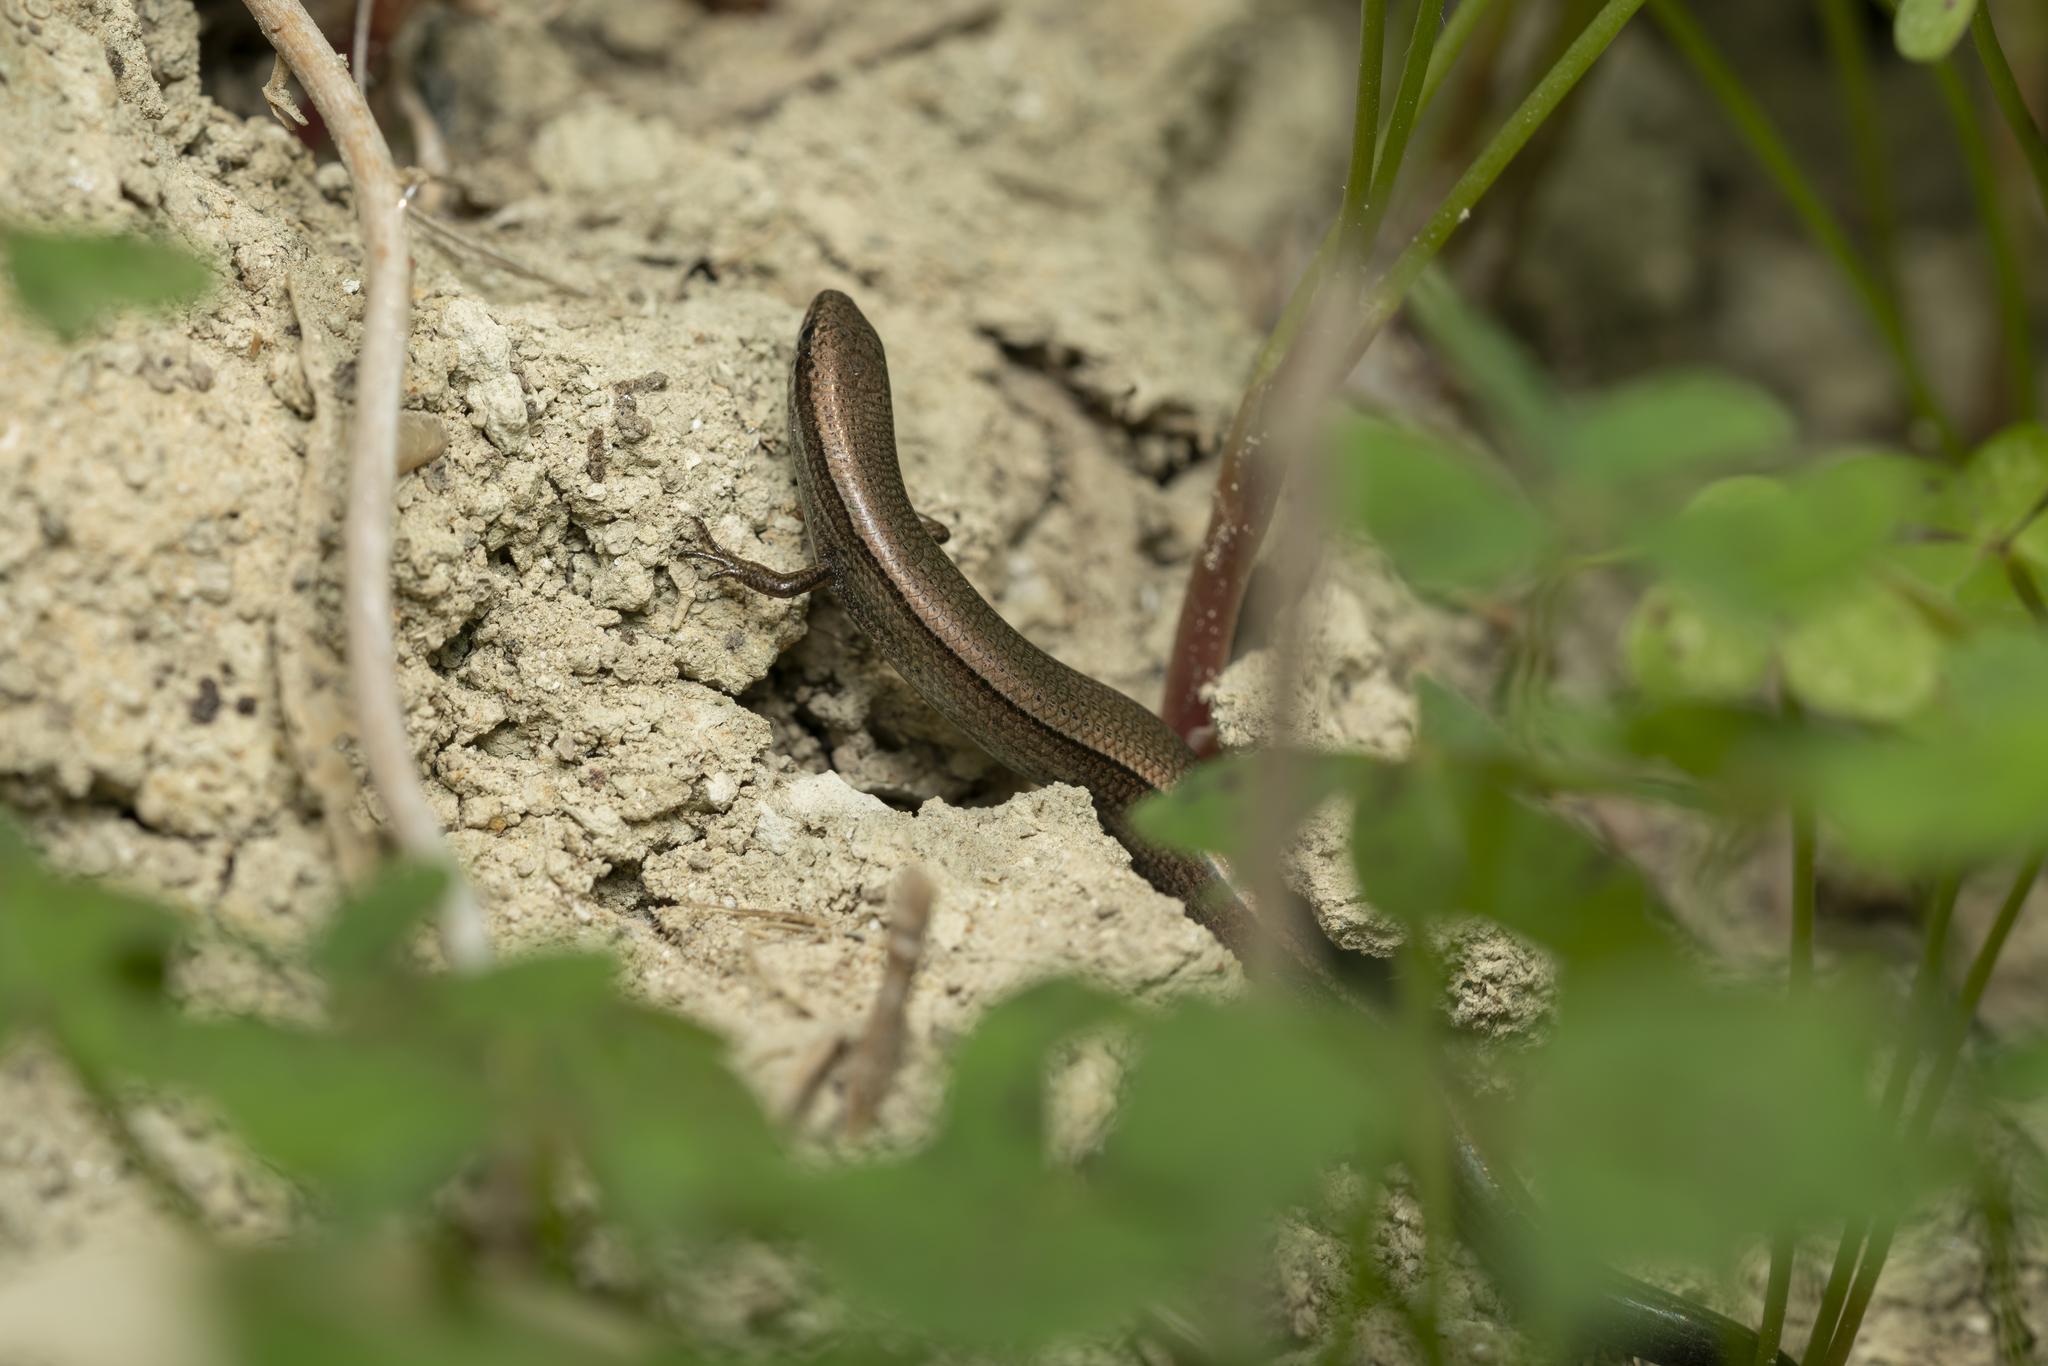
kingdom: Animalia
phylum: Chordata
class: Squamata
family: Scincidae
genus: Ablepharus
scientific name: Ablepharus kitaibelii
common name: Juniper skink
